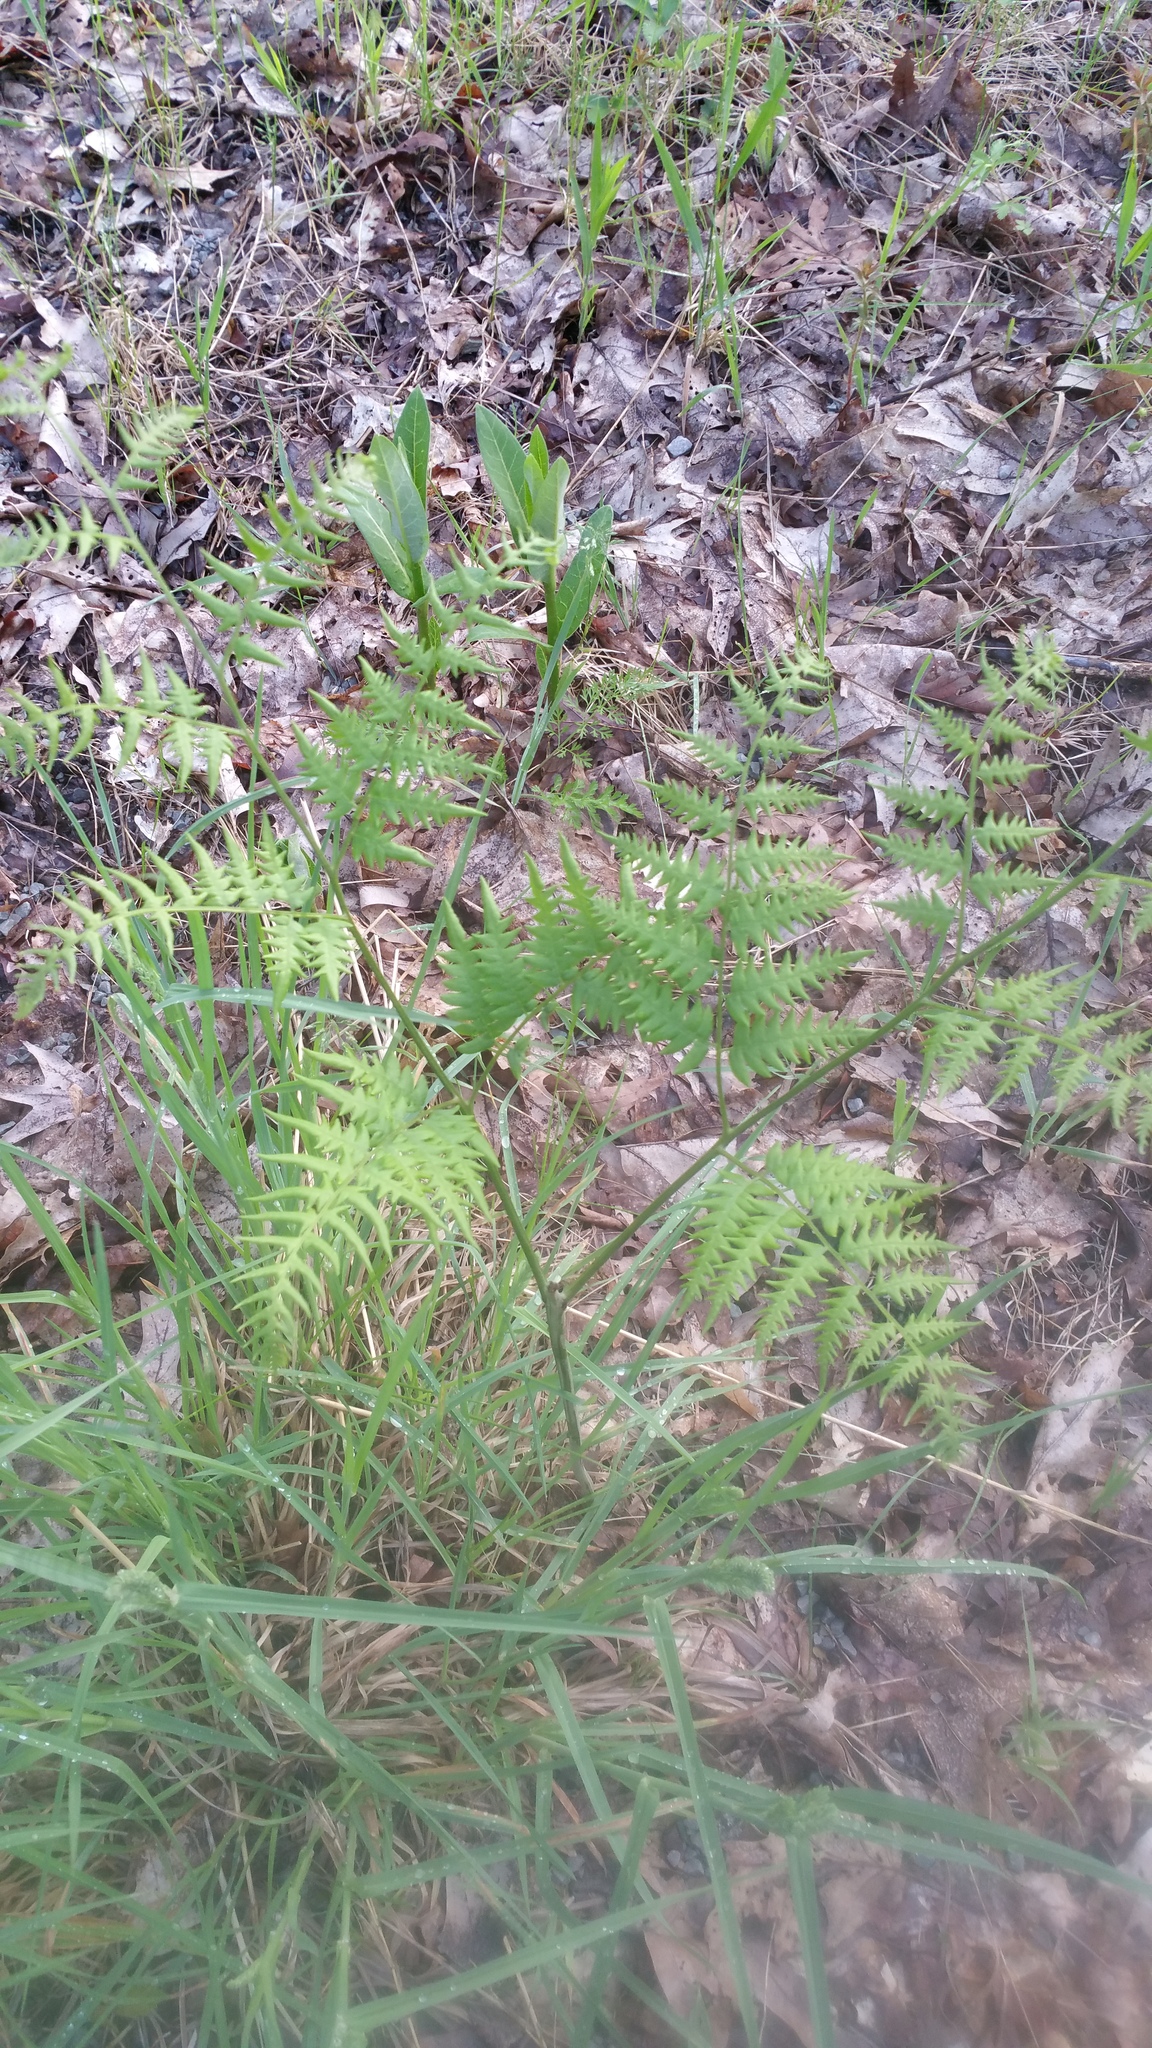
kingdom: Plantae
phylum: Tracheophyta
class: Polypodiopsida
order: Polypodiales
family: Dennstaedtiaceae
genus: Pteridium
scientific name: Pteridium aquilinum
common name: Bracken
